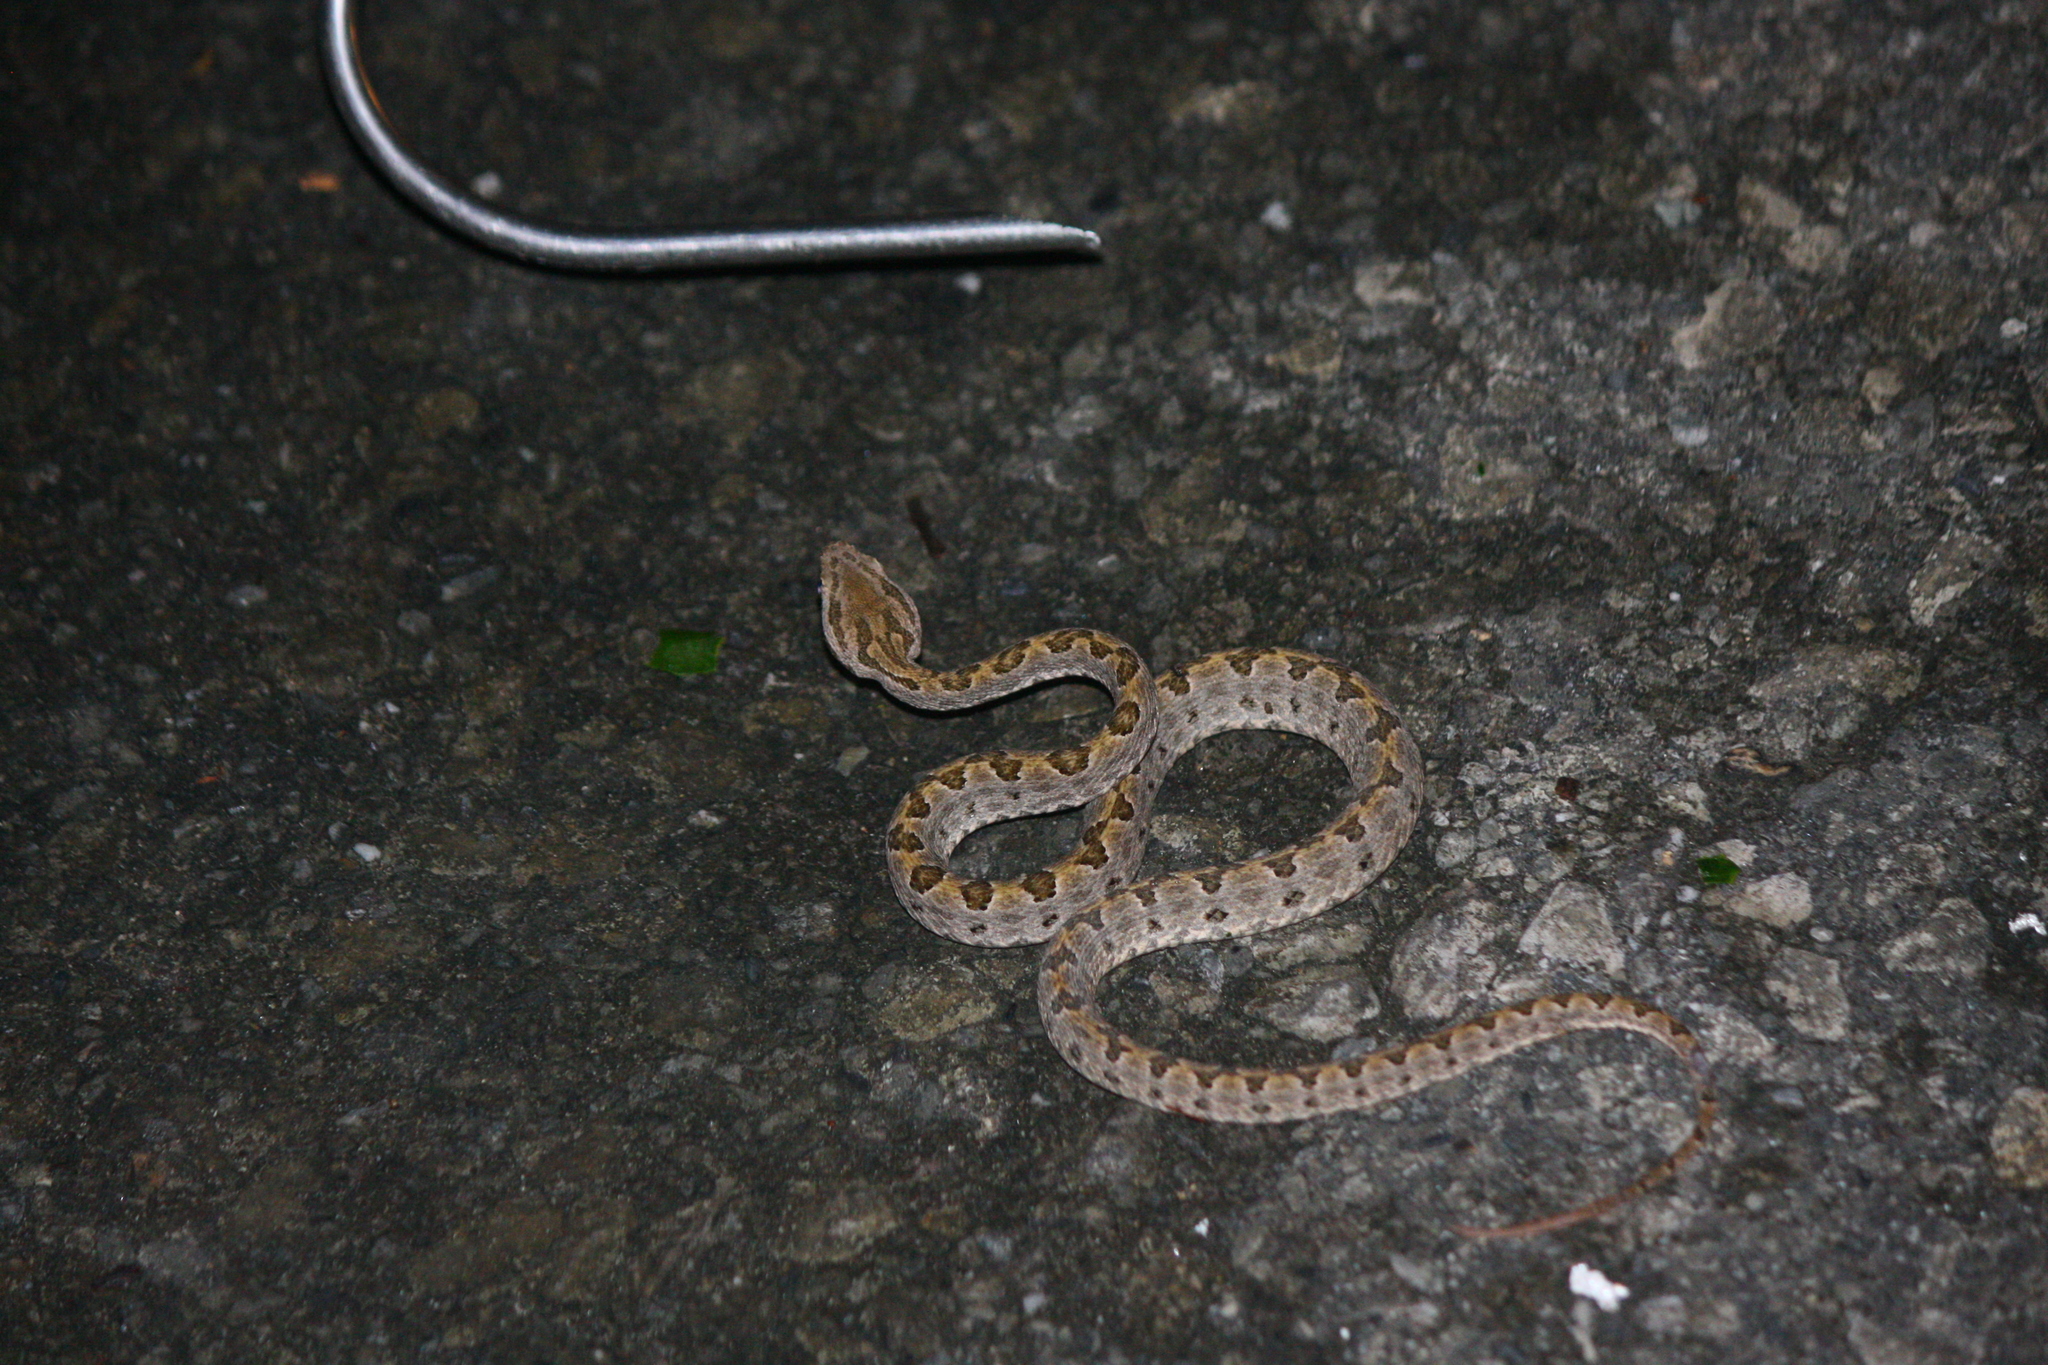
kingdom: Animalia
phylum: Chordata
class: Squamata
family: Viperidae
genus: Protobothrops
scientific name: Protobothrops elegans
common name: Elegant pitviper
